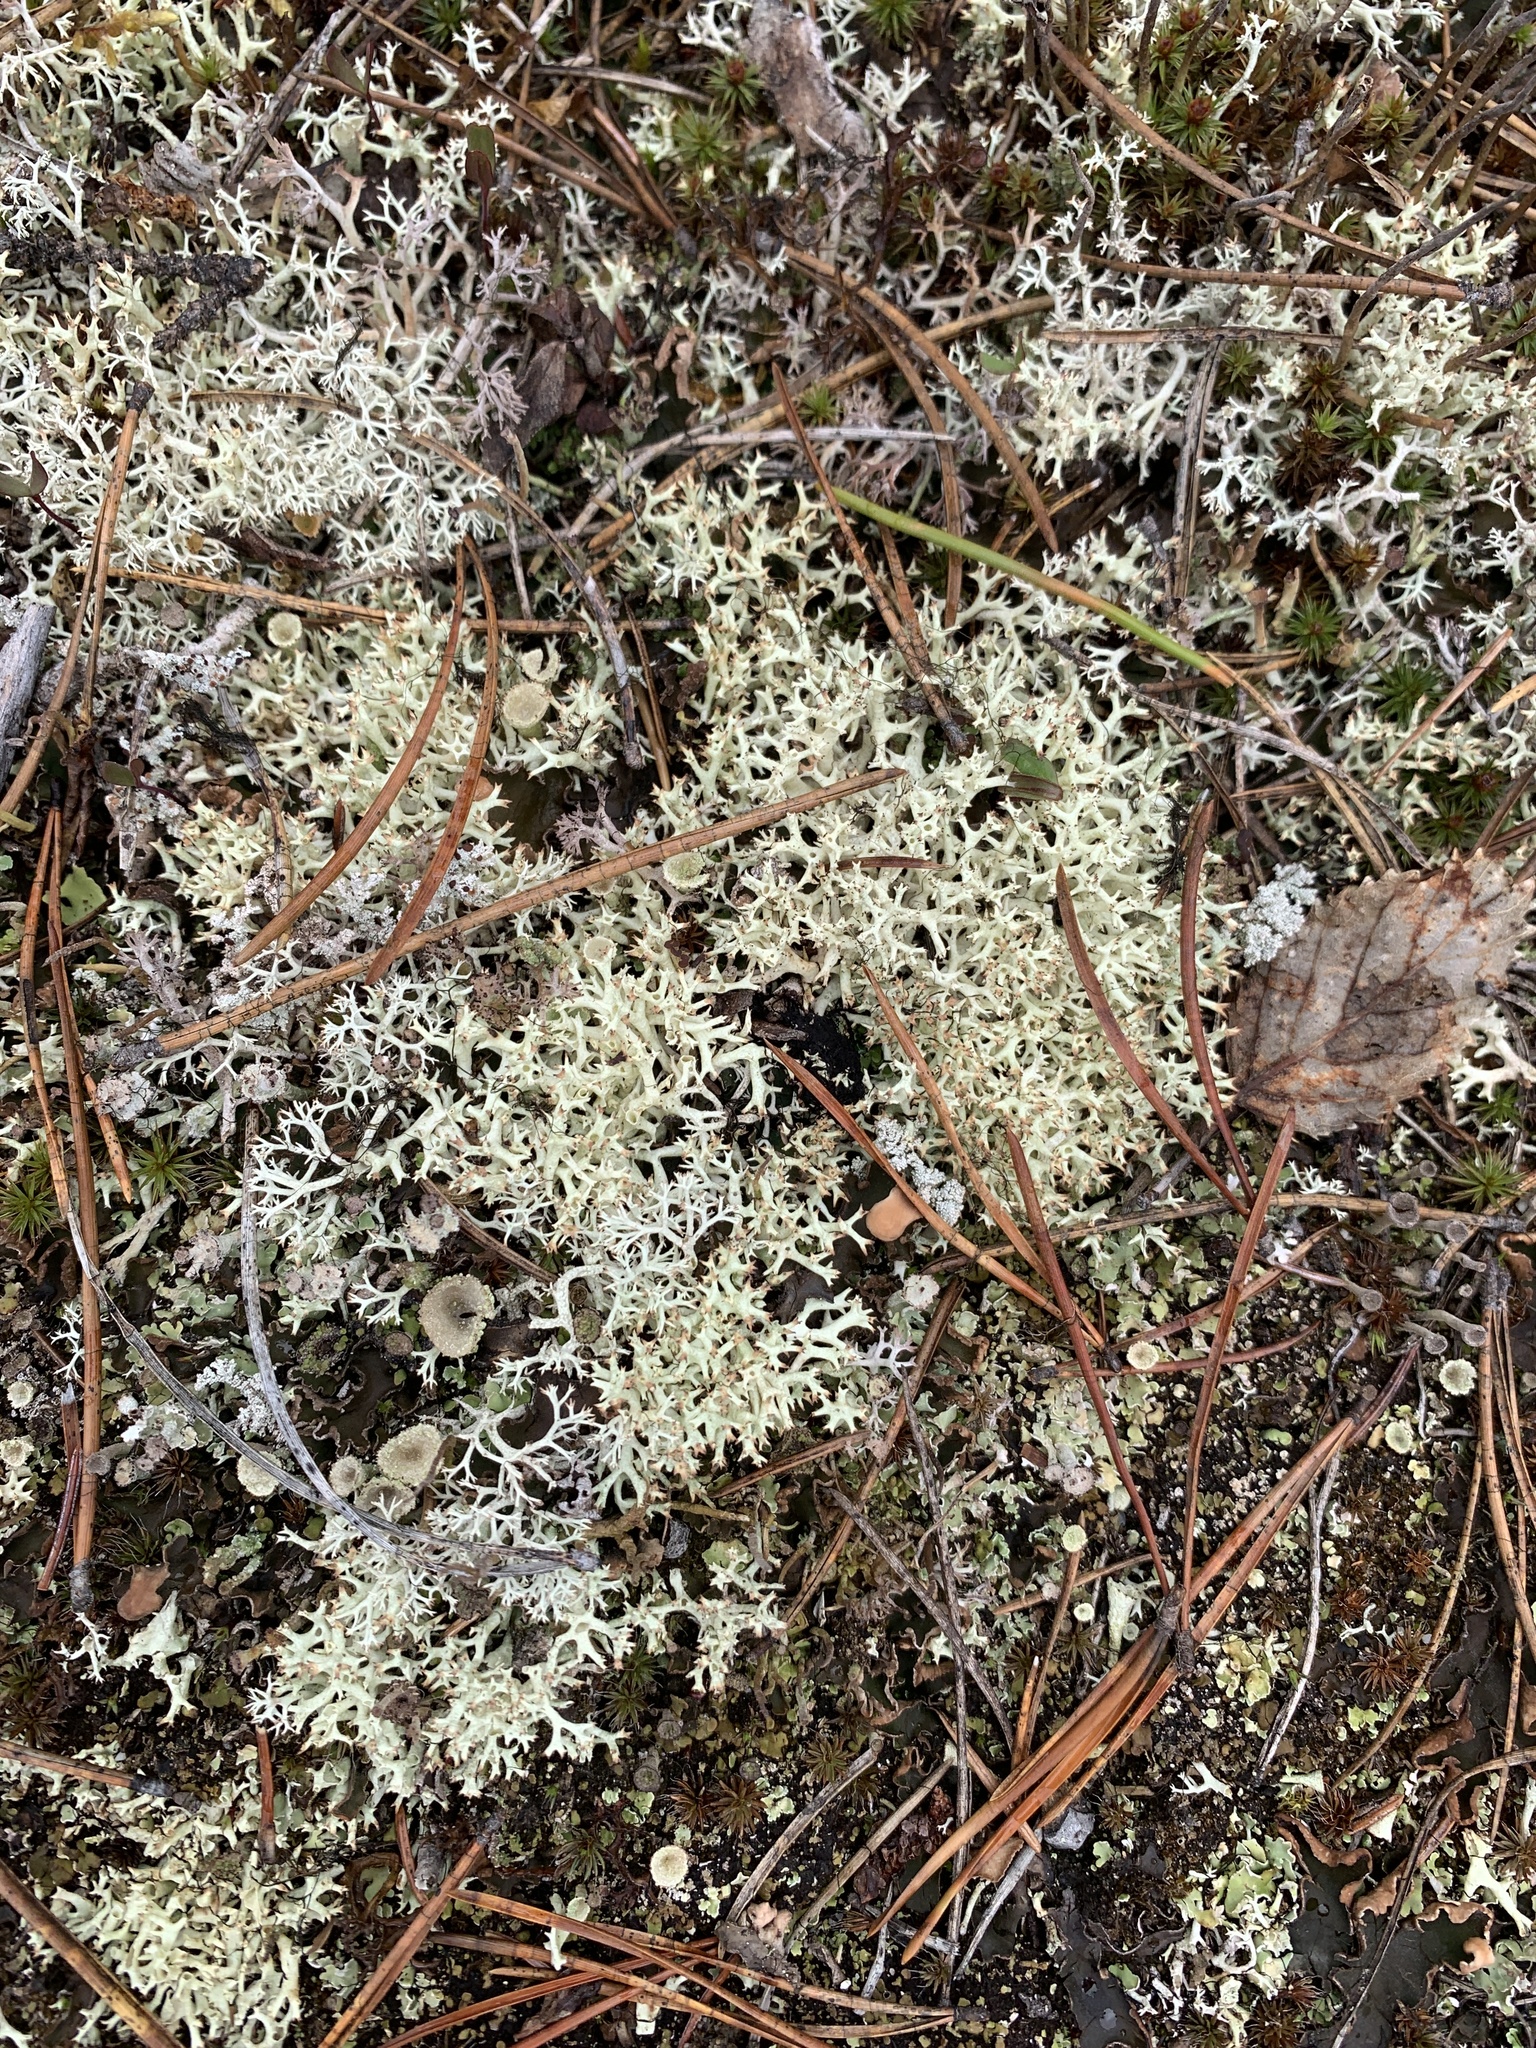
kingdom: Fungi
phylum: Ascomycota
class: Lecanoromycetes
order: Lecanorales
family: Cladoniaceae
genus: Cladonia
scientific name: Cladonia arbuscula
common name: Reindeer lichen
